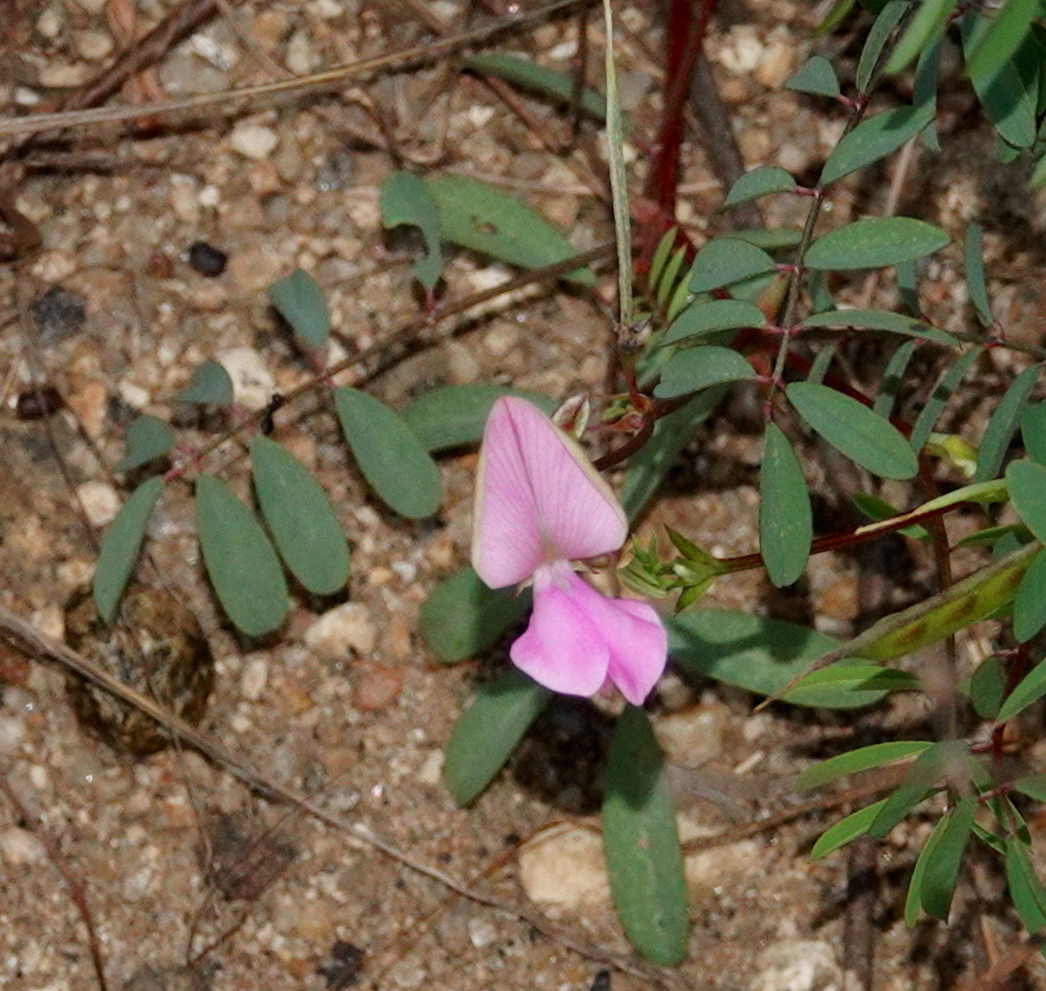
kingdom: Plantae
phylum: Tracheophyta
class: Magnoliopsida
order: Fabales
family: Fabaceae
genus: Tephrosia
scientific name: Tephrosia maxima
